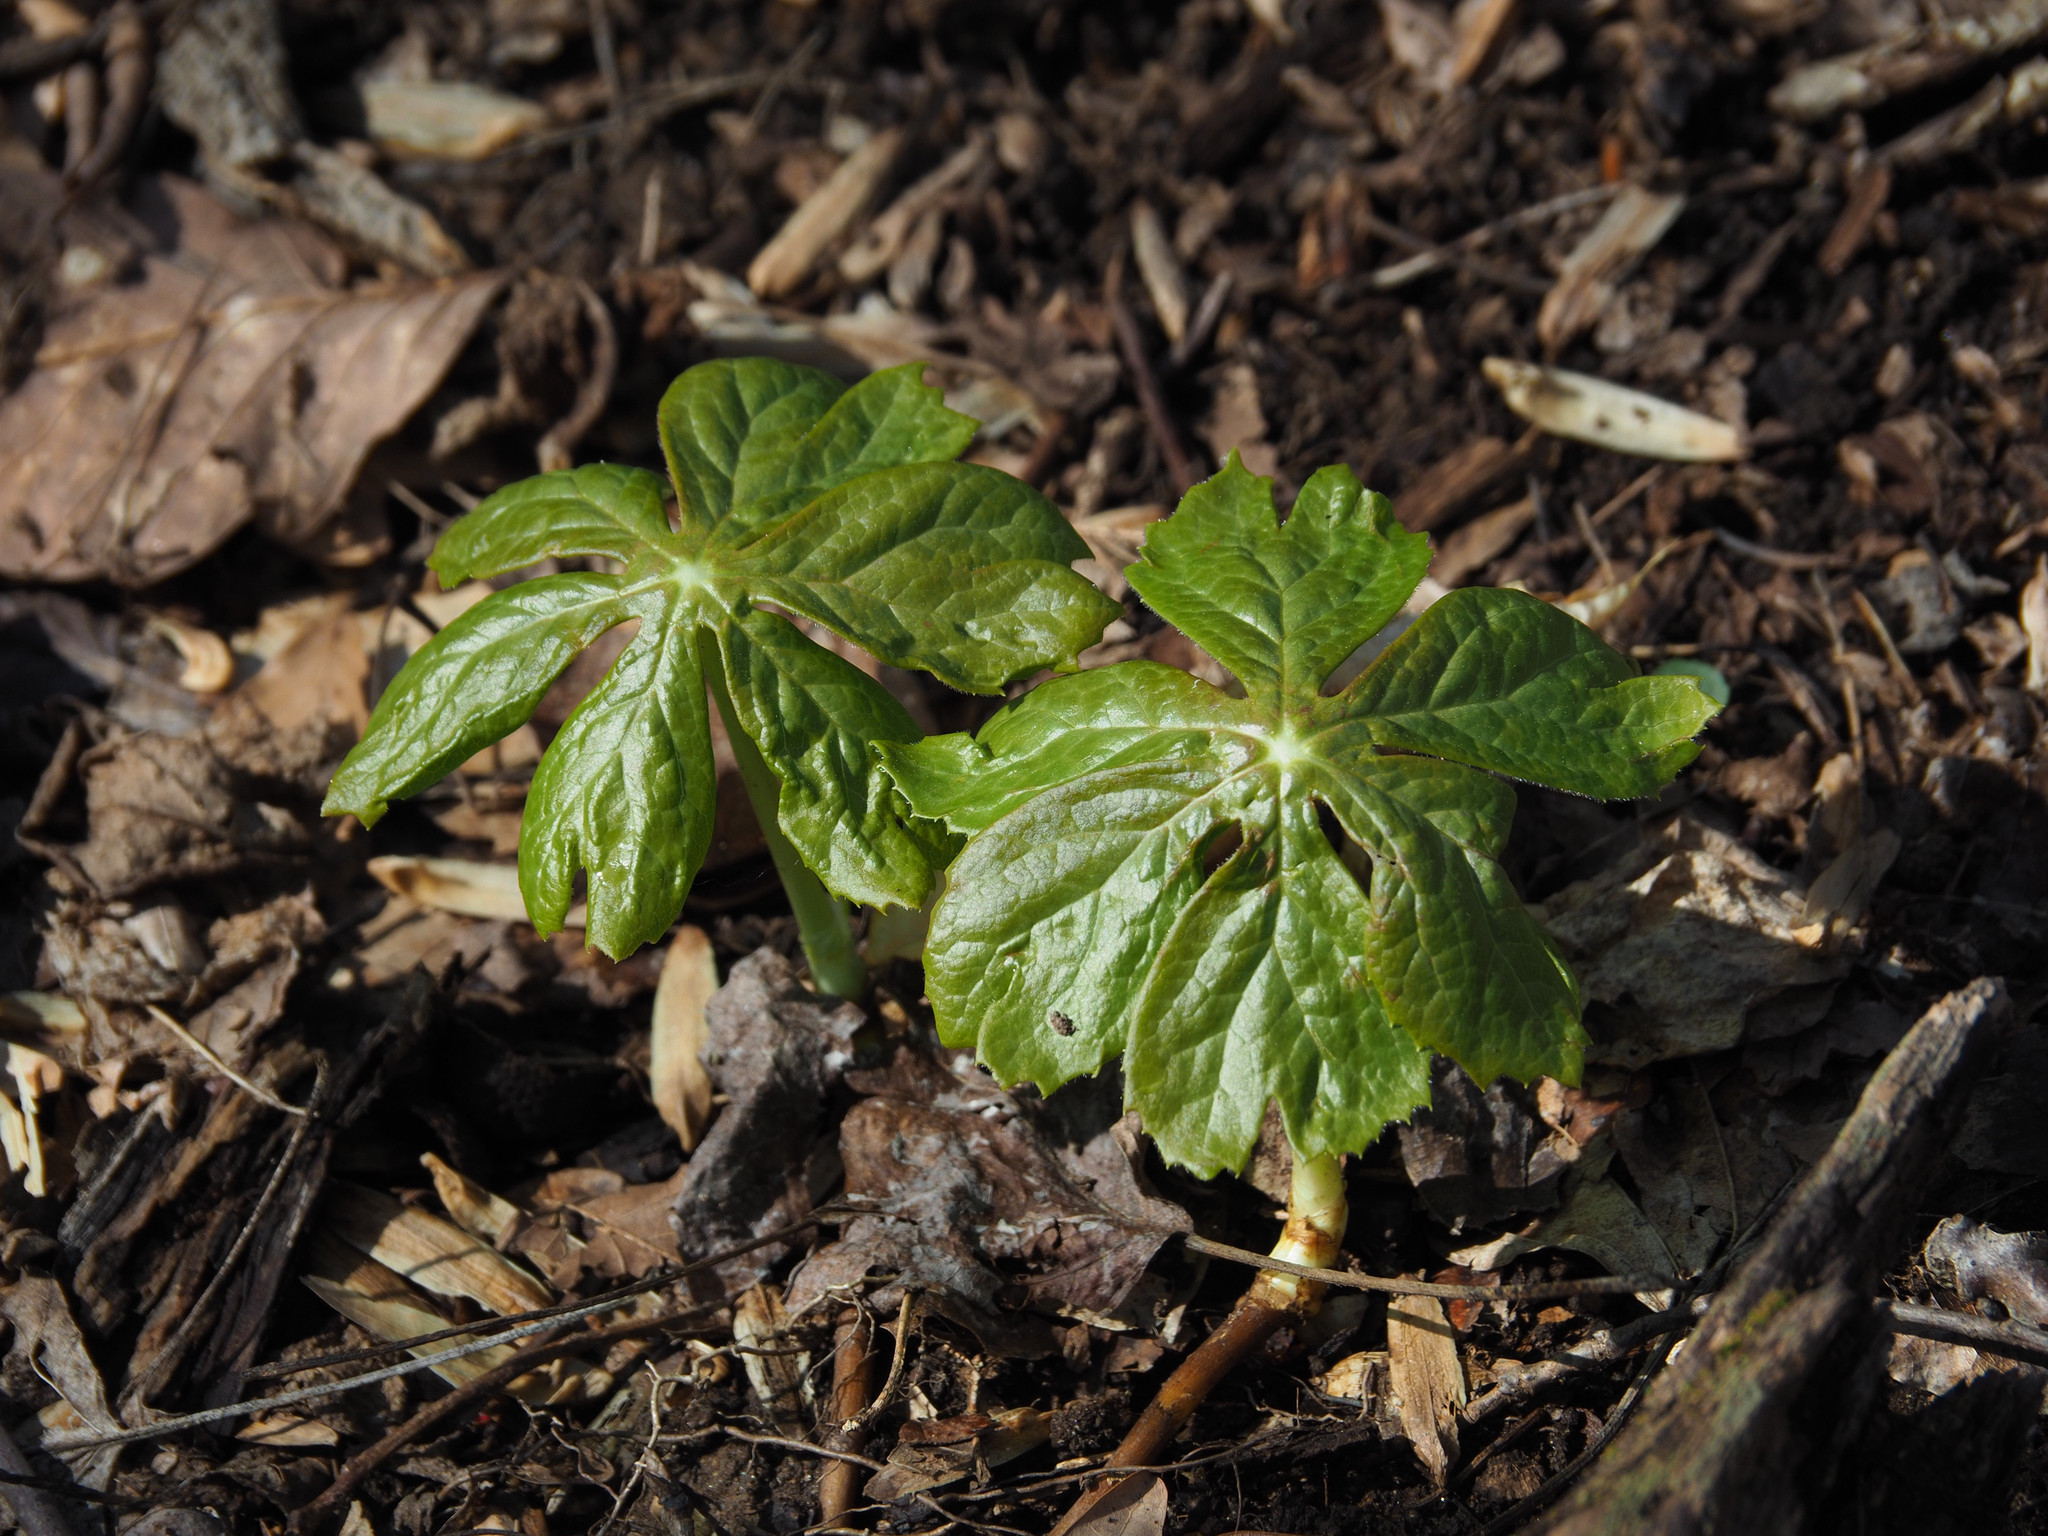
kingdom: Plantae
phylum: Tracheophyta
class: Magnoliopsida
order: Ranunculales
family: Berberidaceae
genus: Podophyllum
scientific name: Podophyllum peltatum
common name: Wild mandrake
